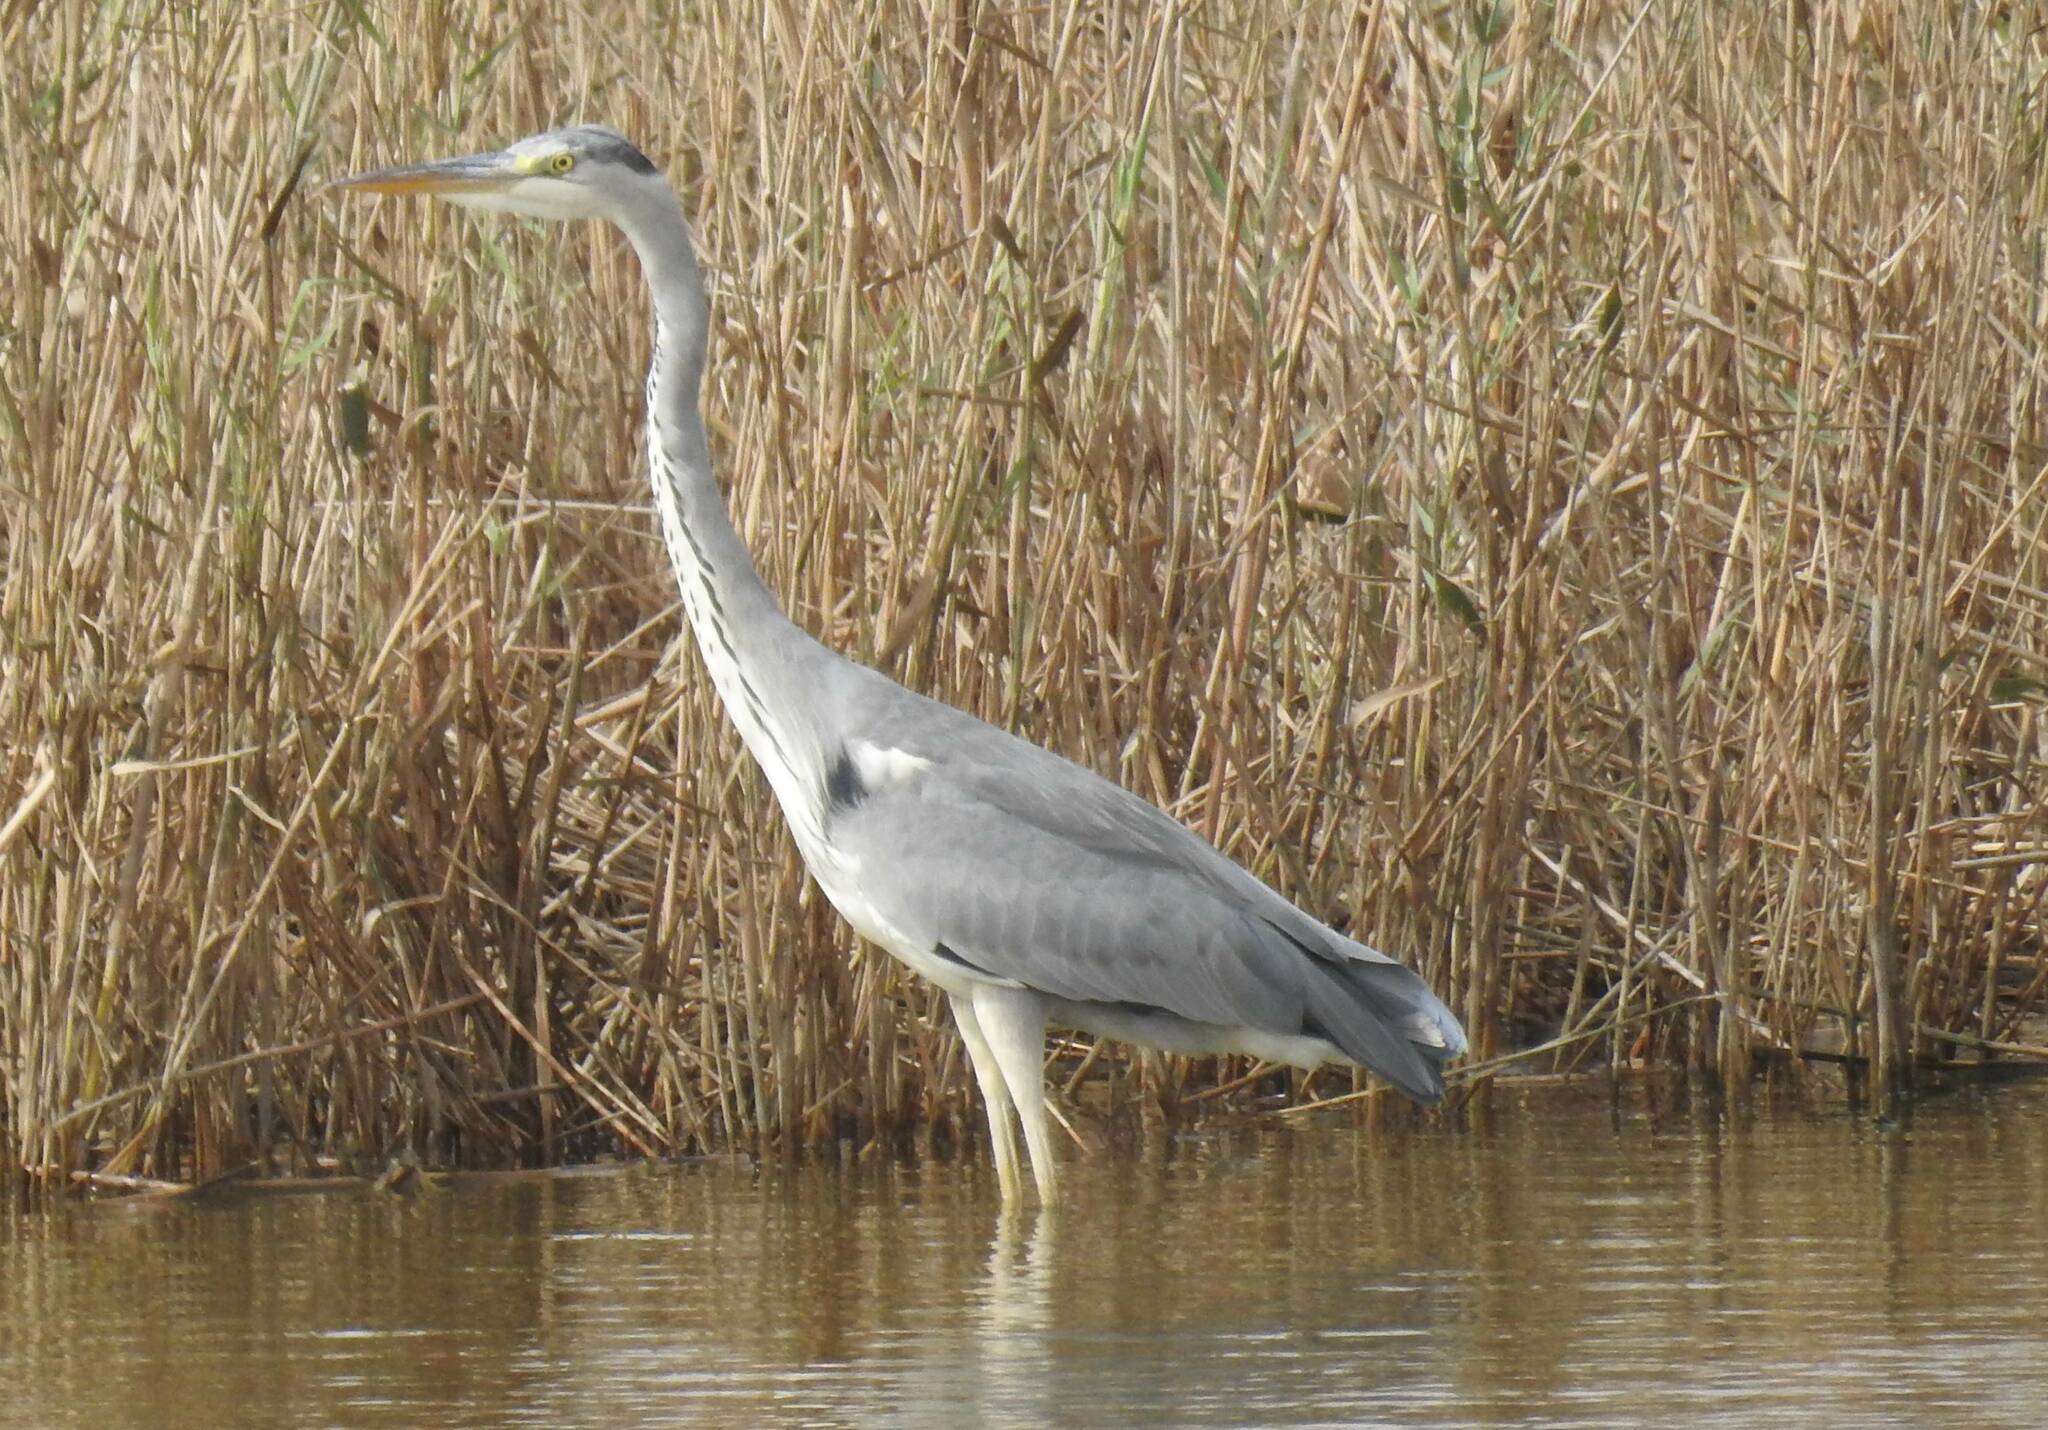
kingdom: Animalia
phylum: Chordata
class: Aves
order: Pelecaniformes
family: Ardeidae
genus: Ardea
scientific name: Ardea cinerea
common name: Grey heron
